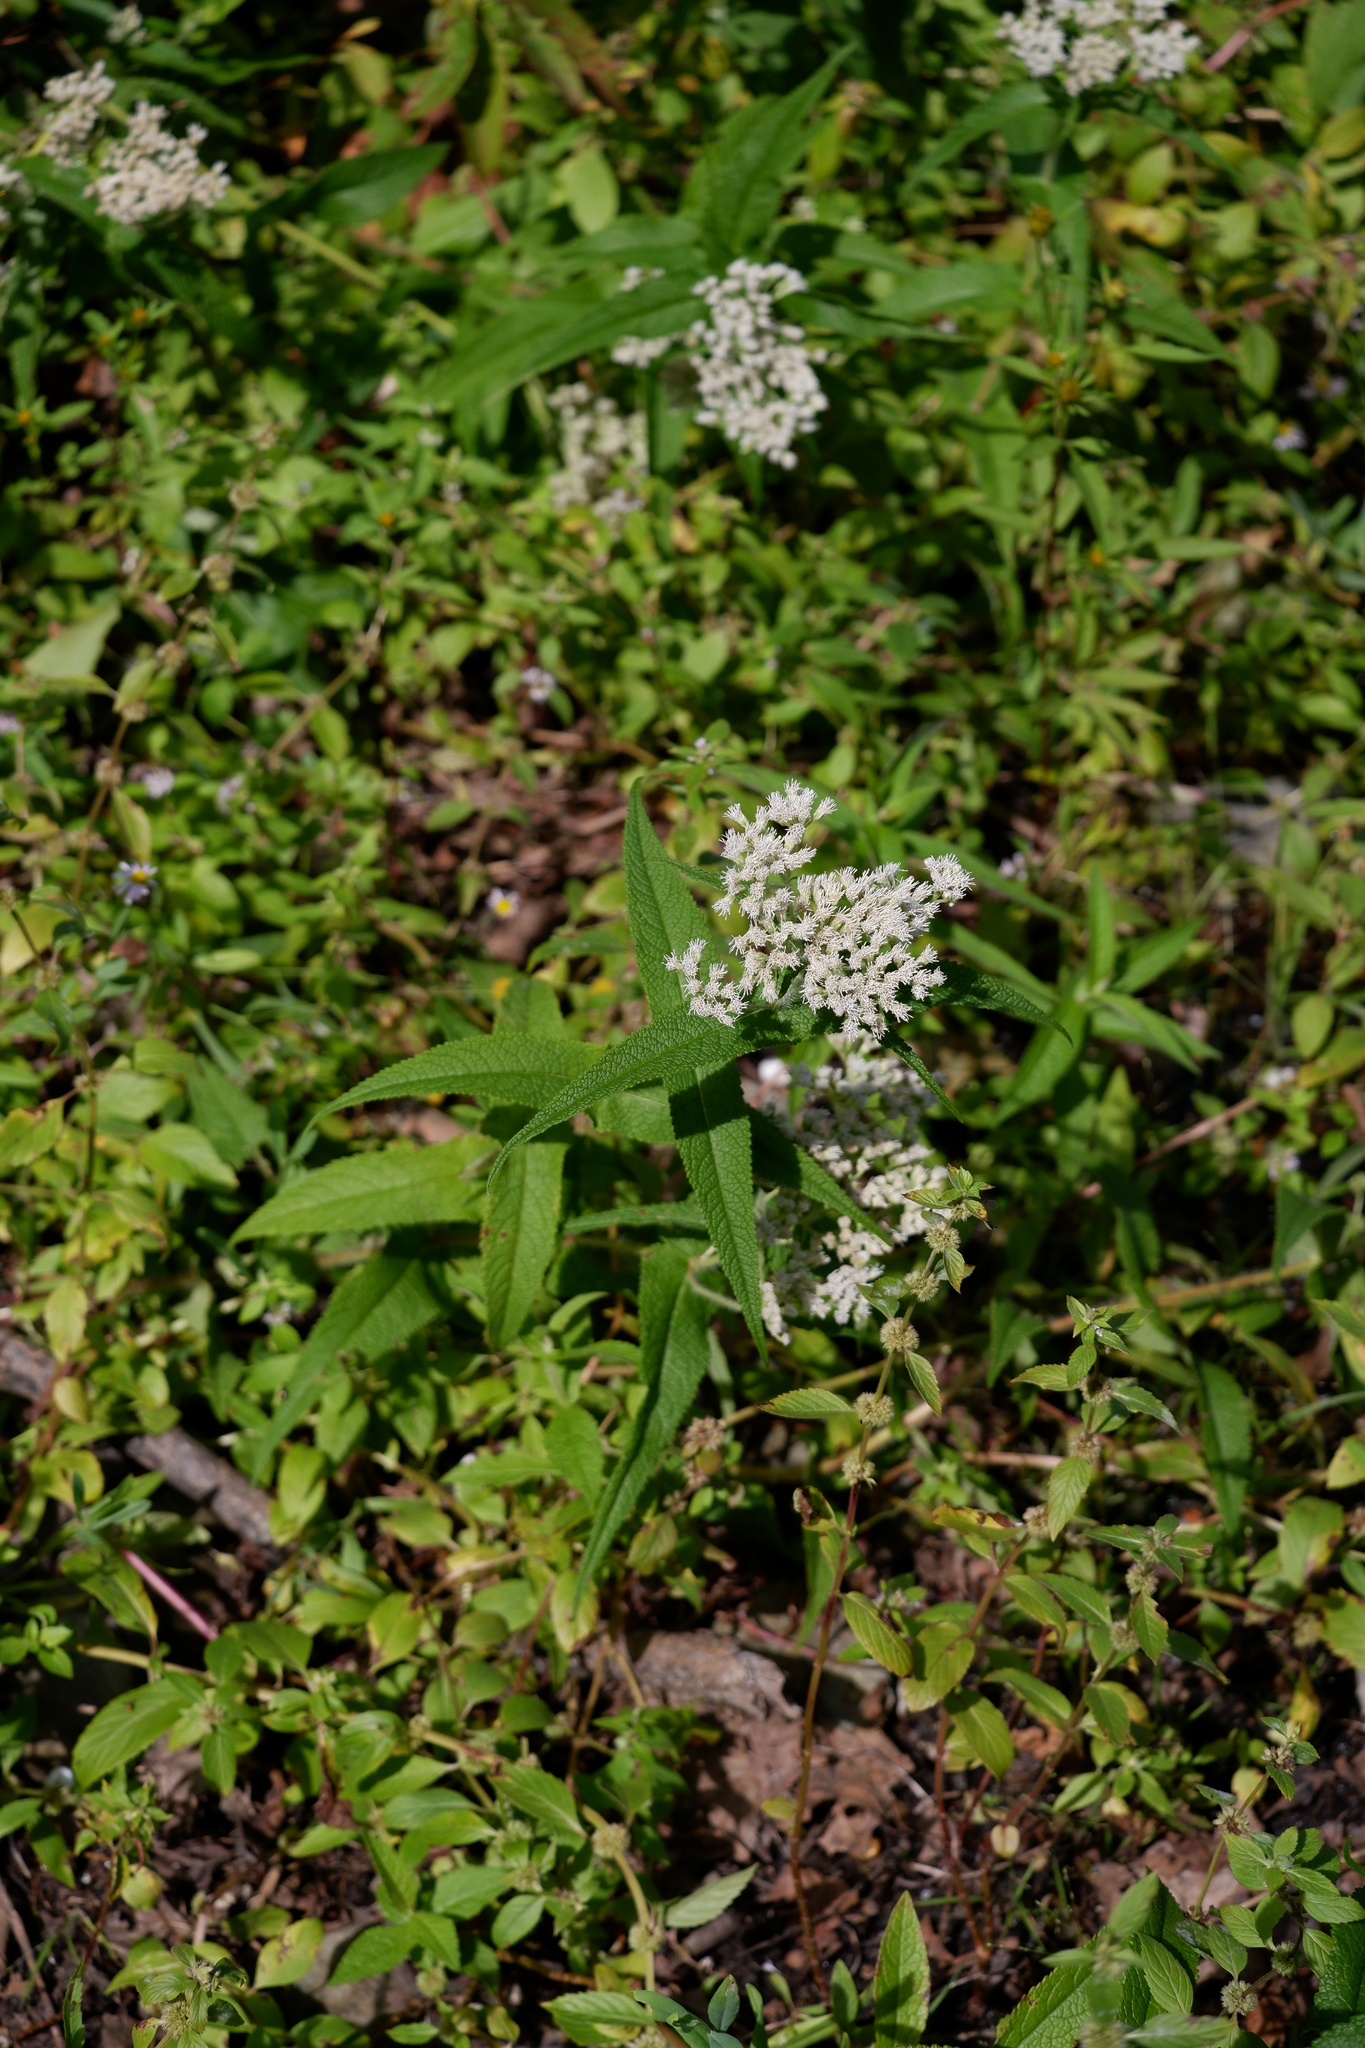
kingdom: Plantae
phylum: Tracheophyta
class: Magnoliopsida
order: Asterales
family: Asteraceae
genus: Eupatorium
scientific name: Eupatorium perfoliatum
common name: Boneset
